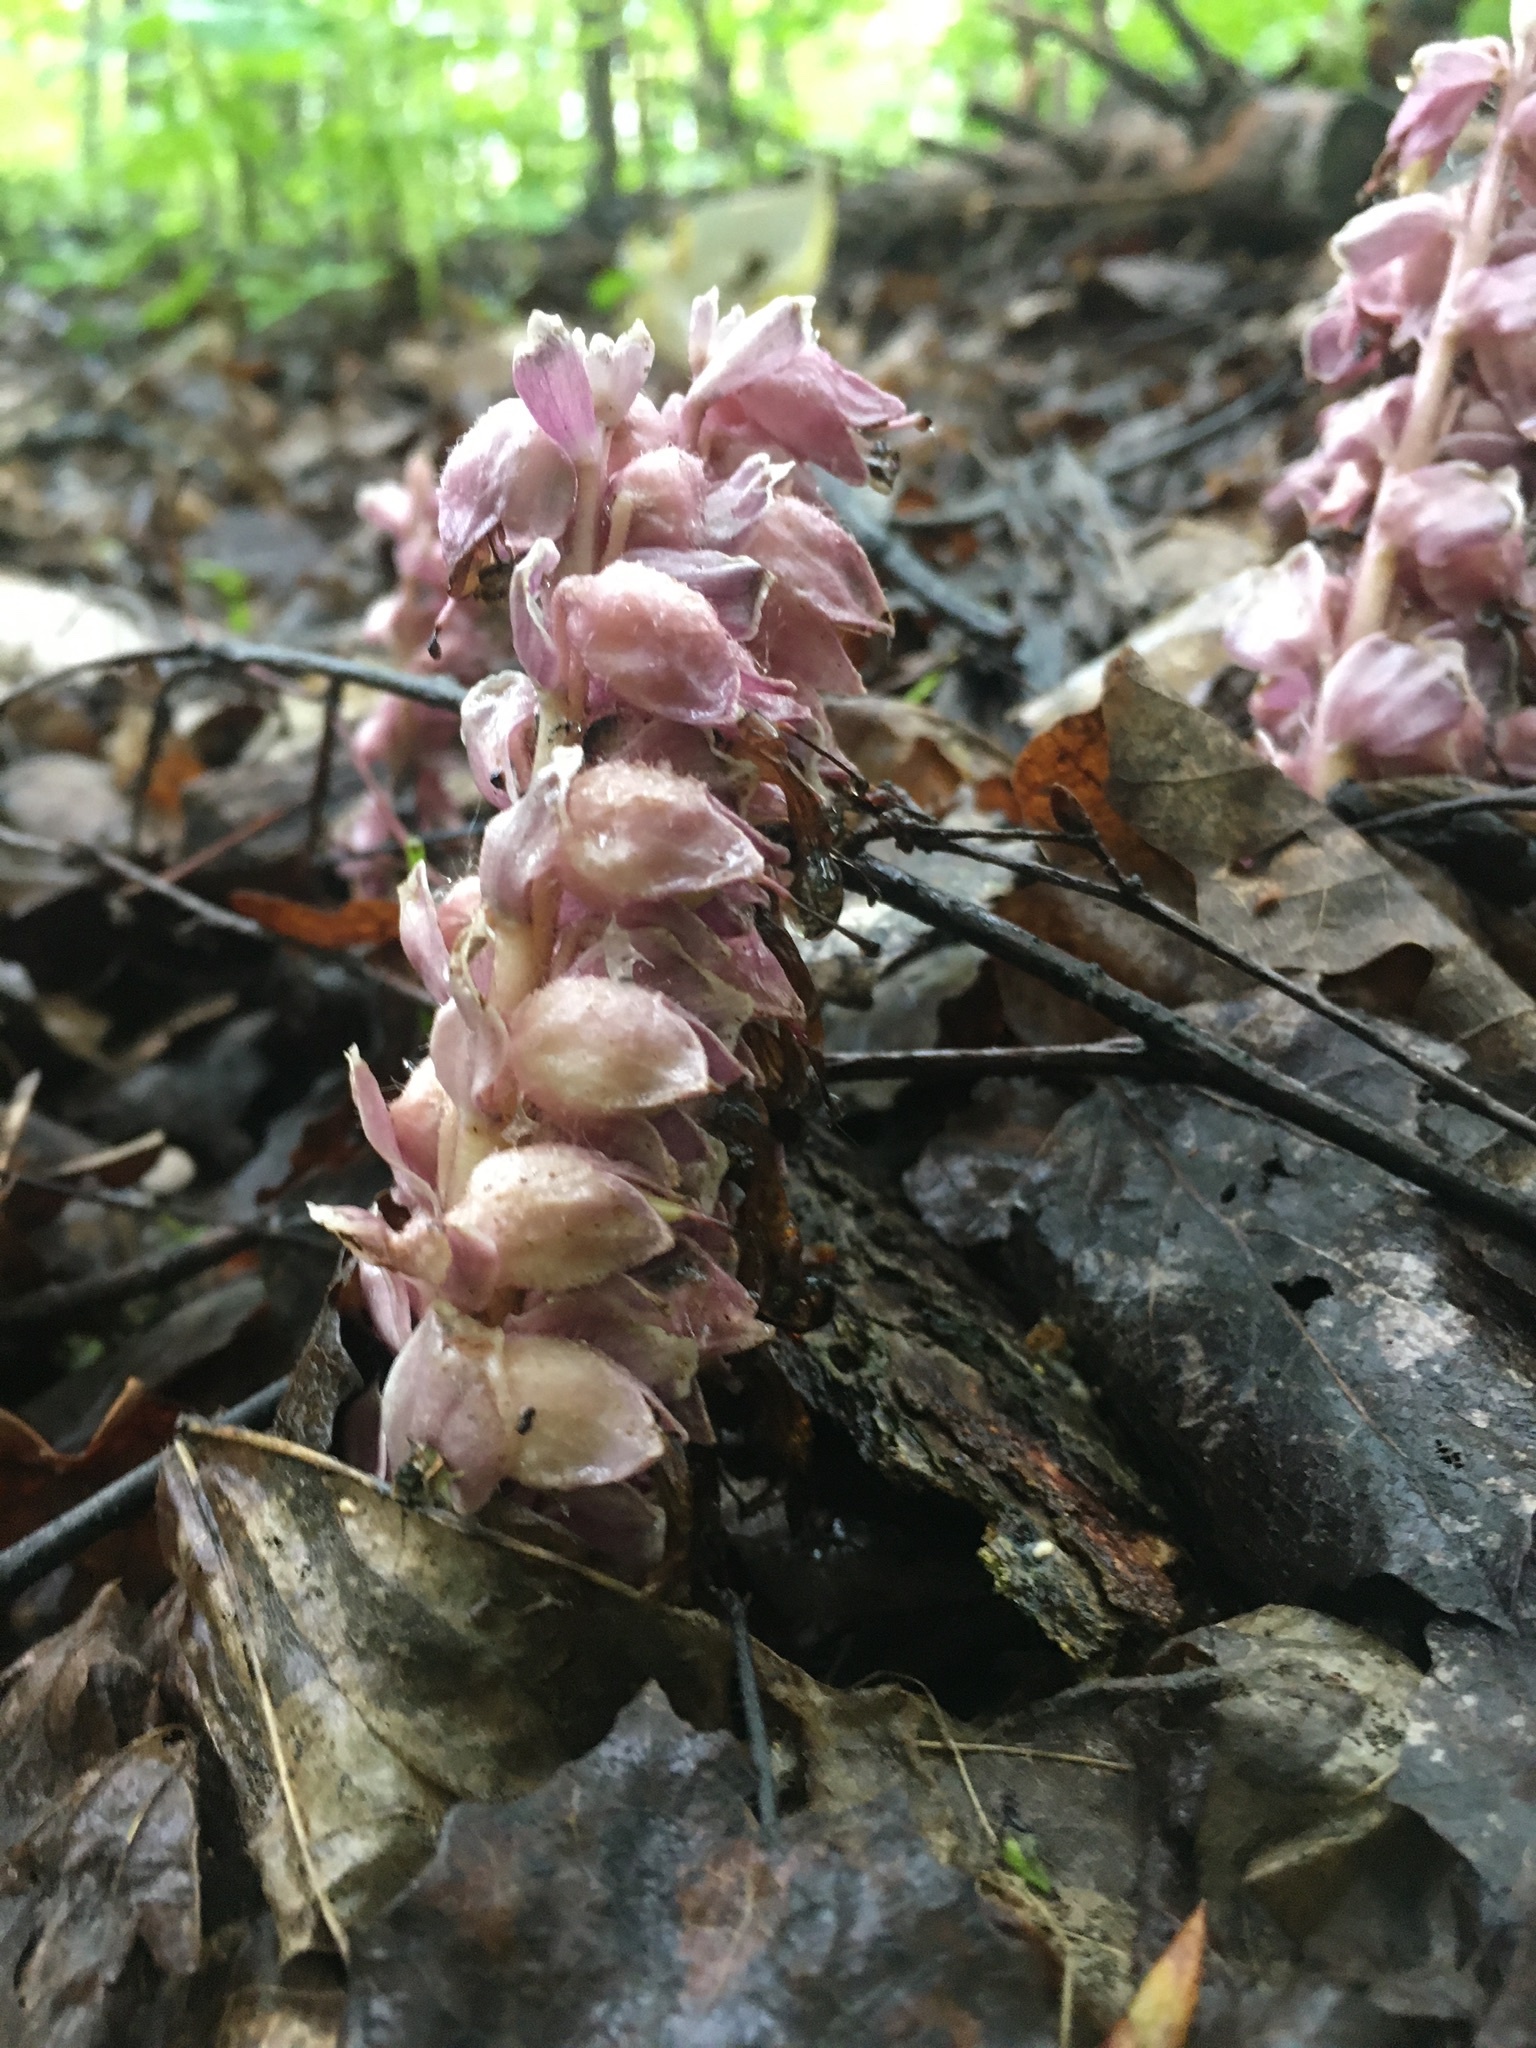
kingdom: Plantae
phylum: Tracheophyta
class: Magnoliopsida
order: Lamiales
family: Orobanchaceae
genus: Lathraea
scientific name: Lathraea squamaria
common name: Toothwort
